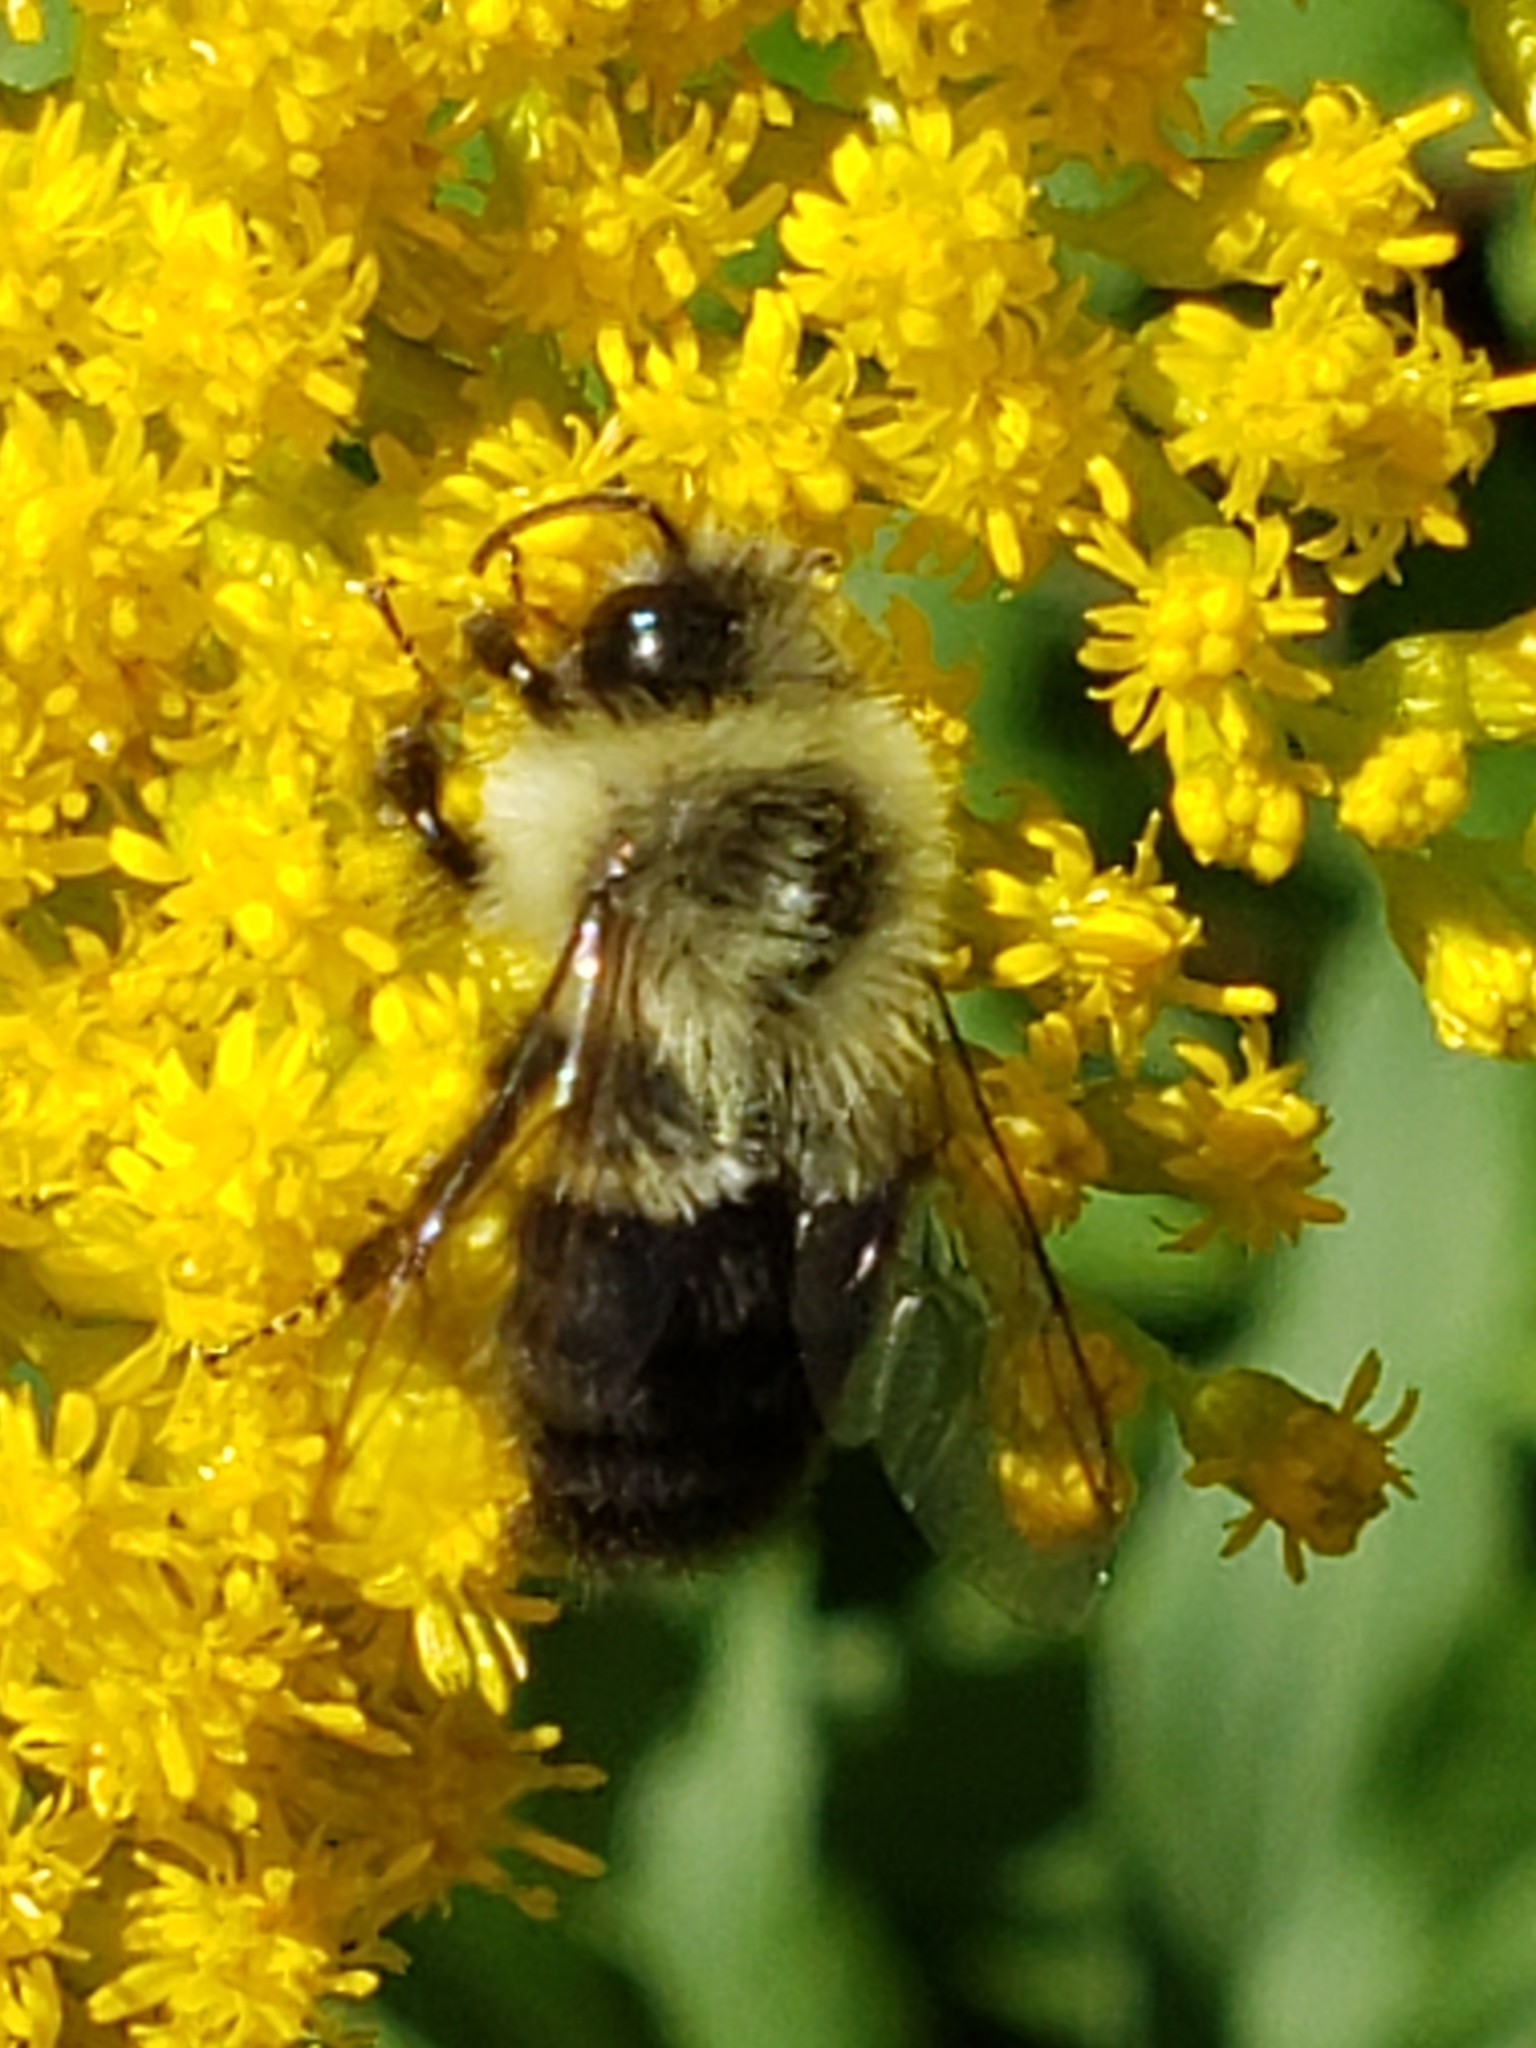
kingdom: Animalia
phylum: Arthropoda
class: Insecta
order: Hymenoptera
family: Apidae
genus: Bombus
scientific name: Bombus impatiens
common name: Common eastern bumble bee
